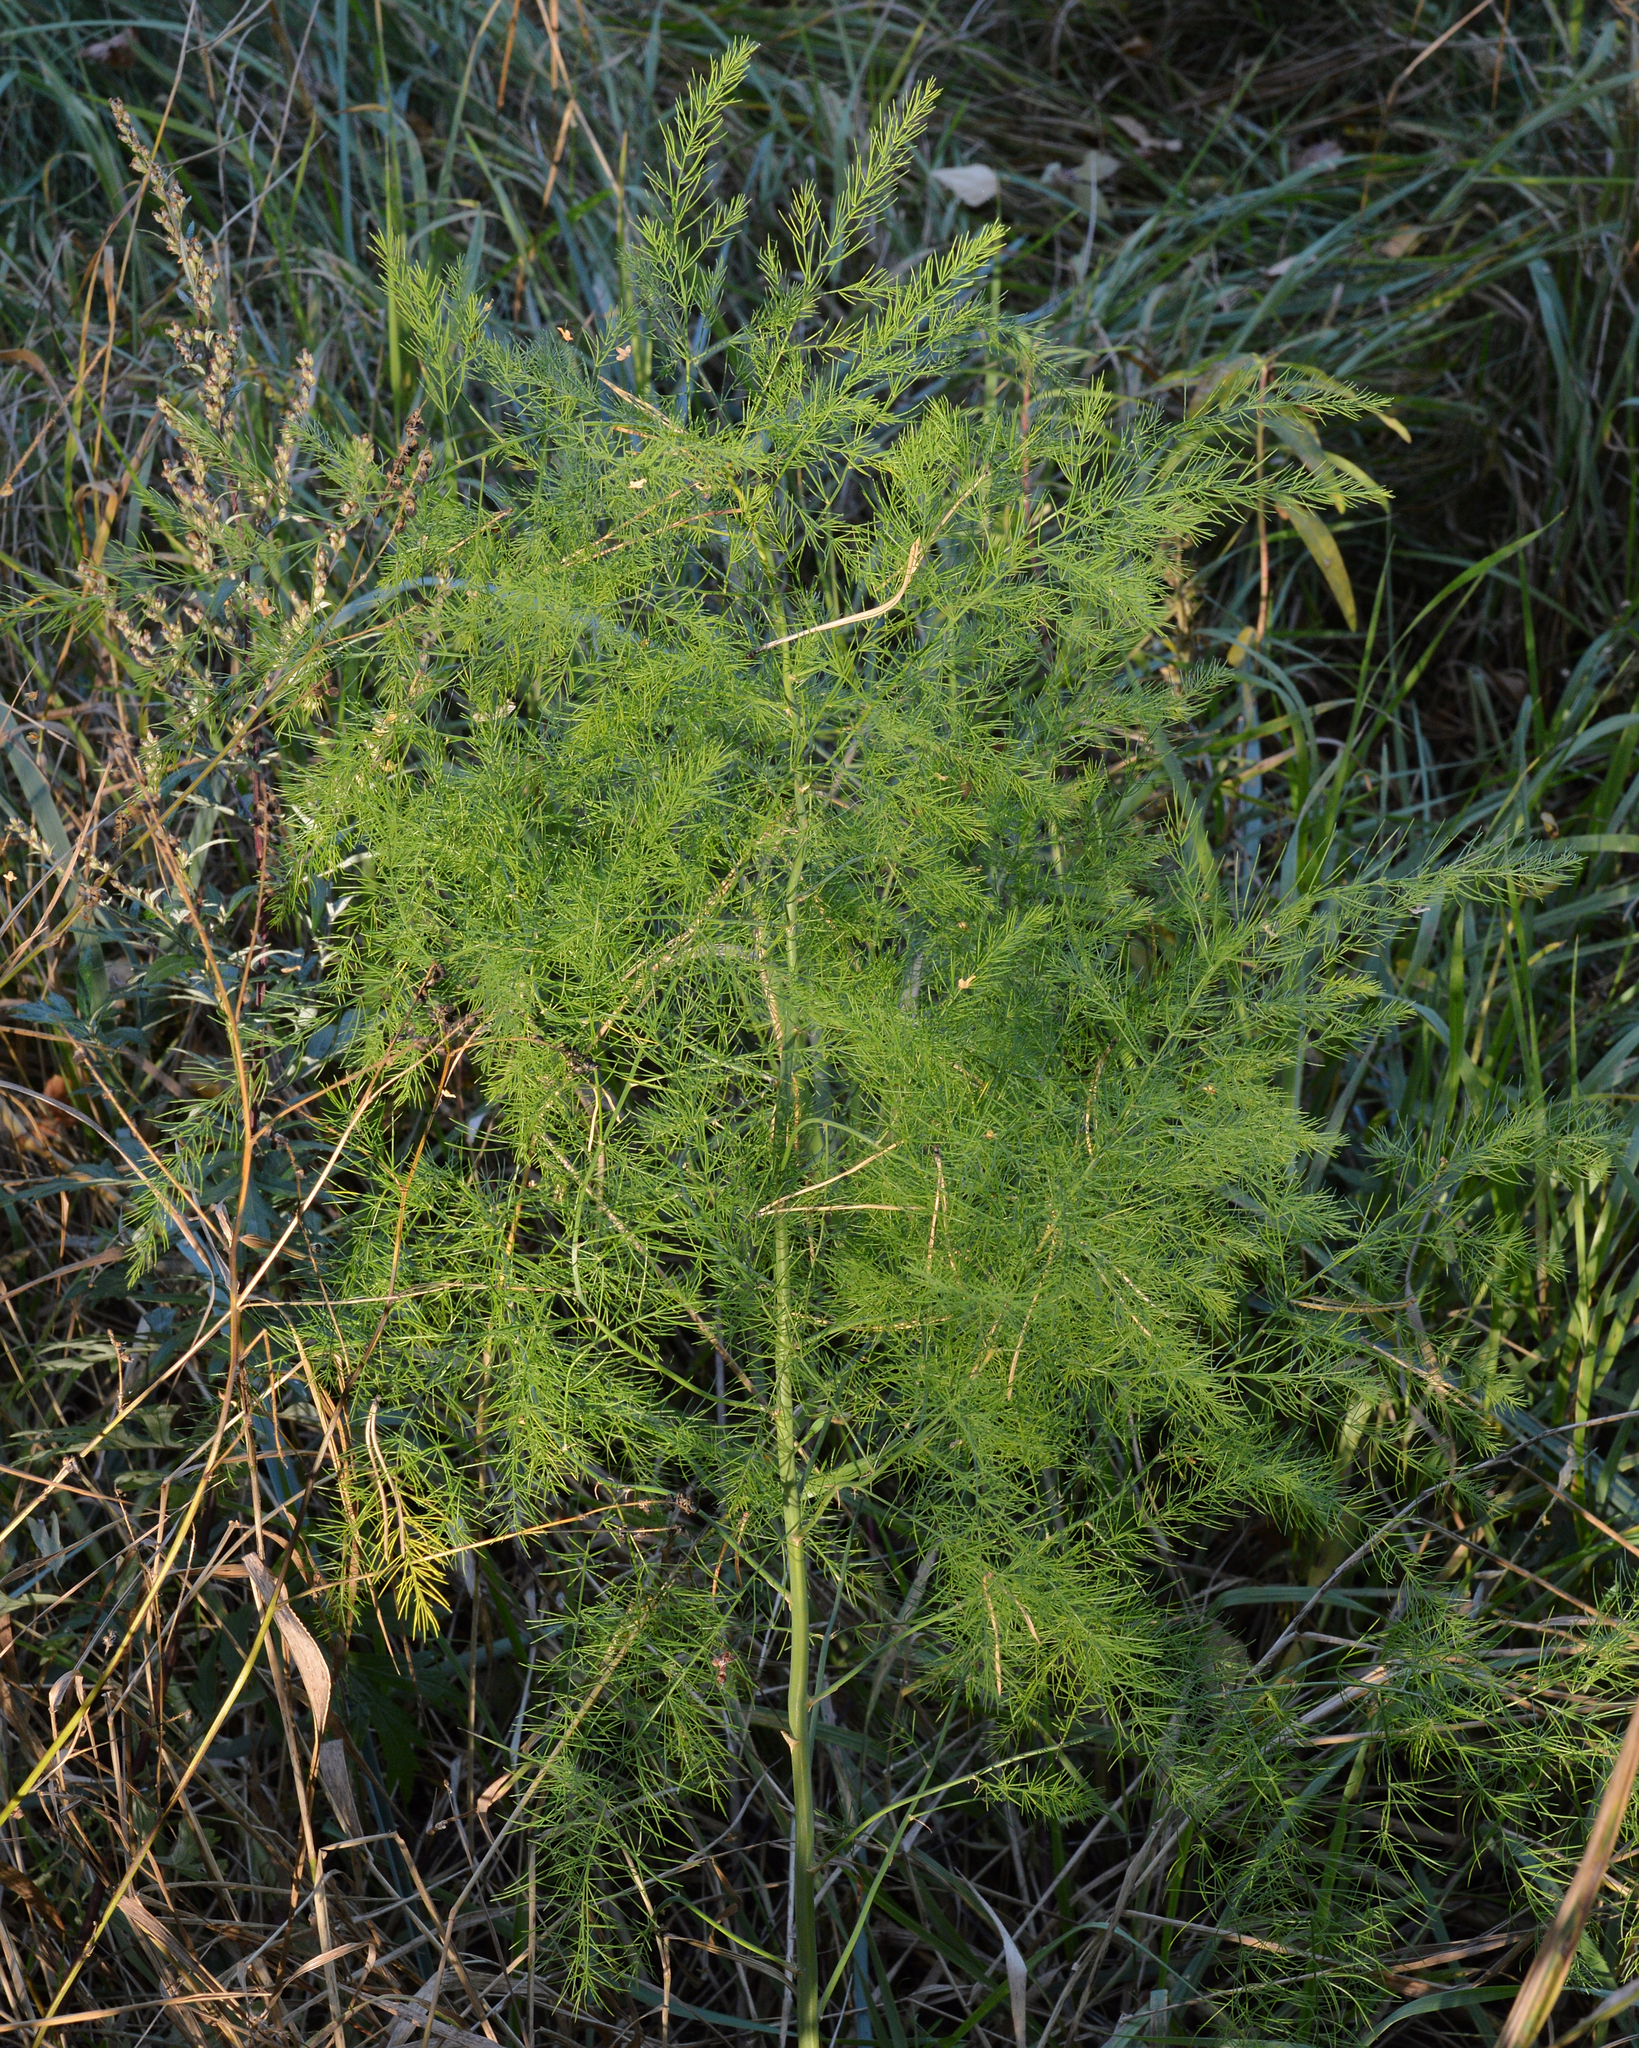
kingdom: Plantae
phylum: Tracheophyta
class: Liliopsida
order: Asparagales
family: Asparagaceae
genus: Asparagus
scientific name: Asparagus officinalis
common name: Garden asparagus
